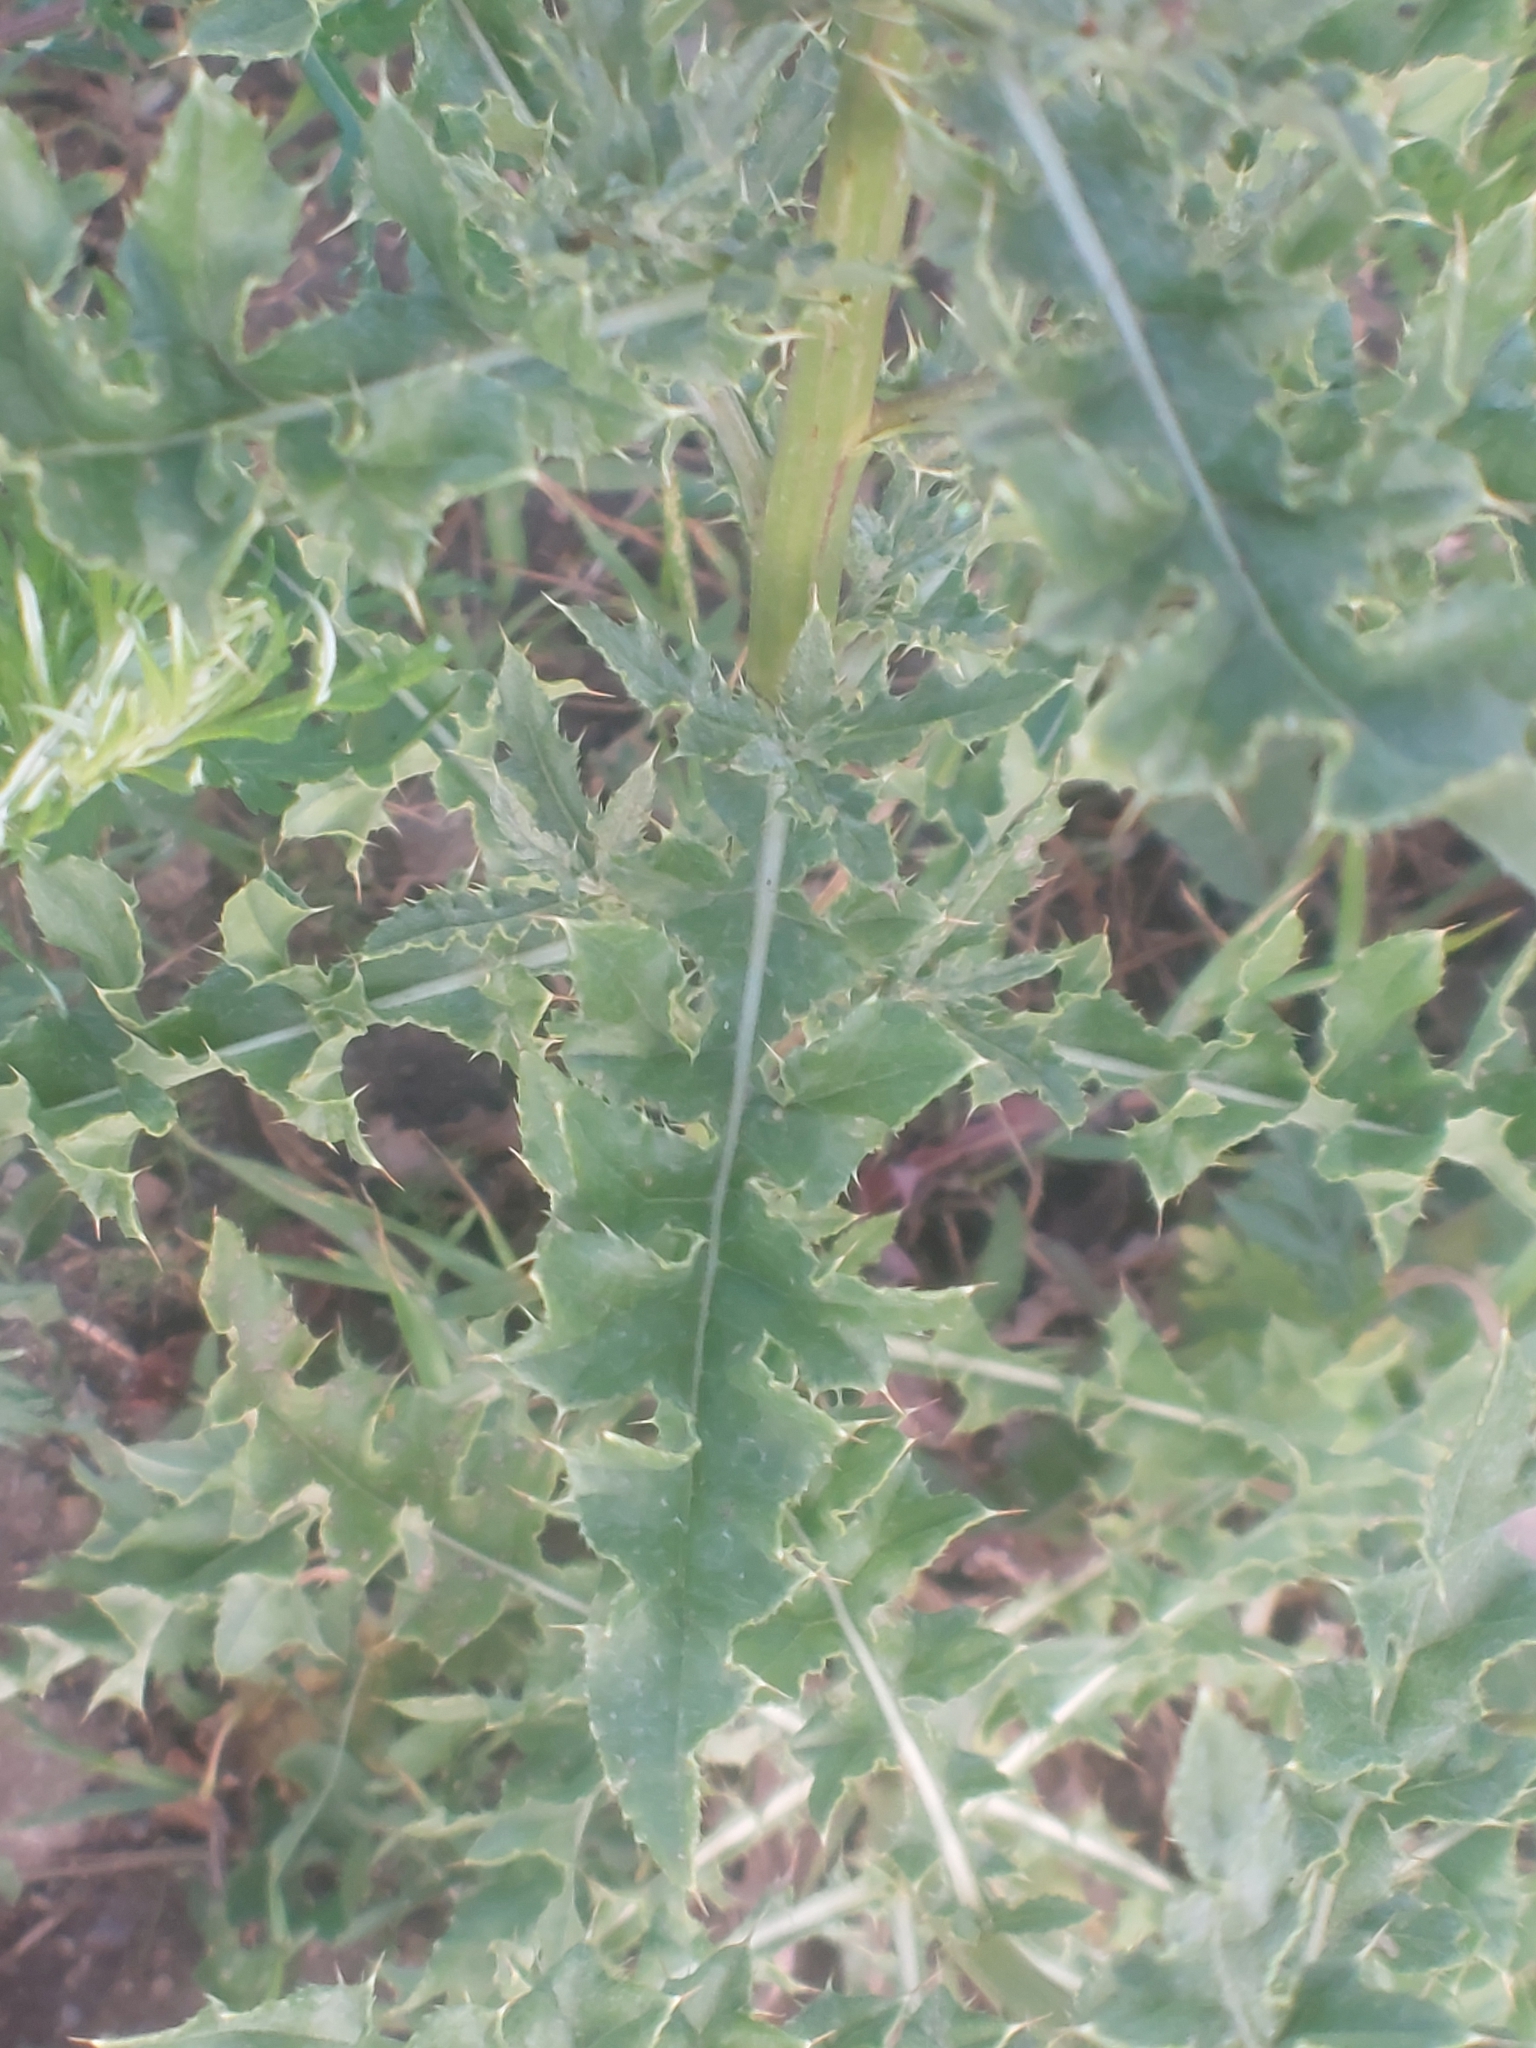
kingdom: Plantae
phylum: Tracheophyta
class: Magnoliopsida
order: Asterales
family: Asteraceae
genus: Cirsium
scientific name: Cirsium arvense
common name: Creeping thistle
